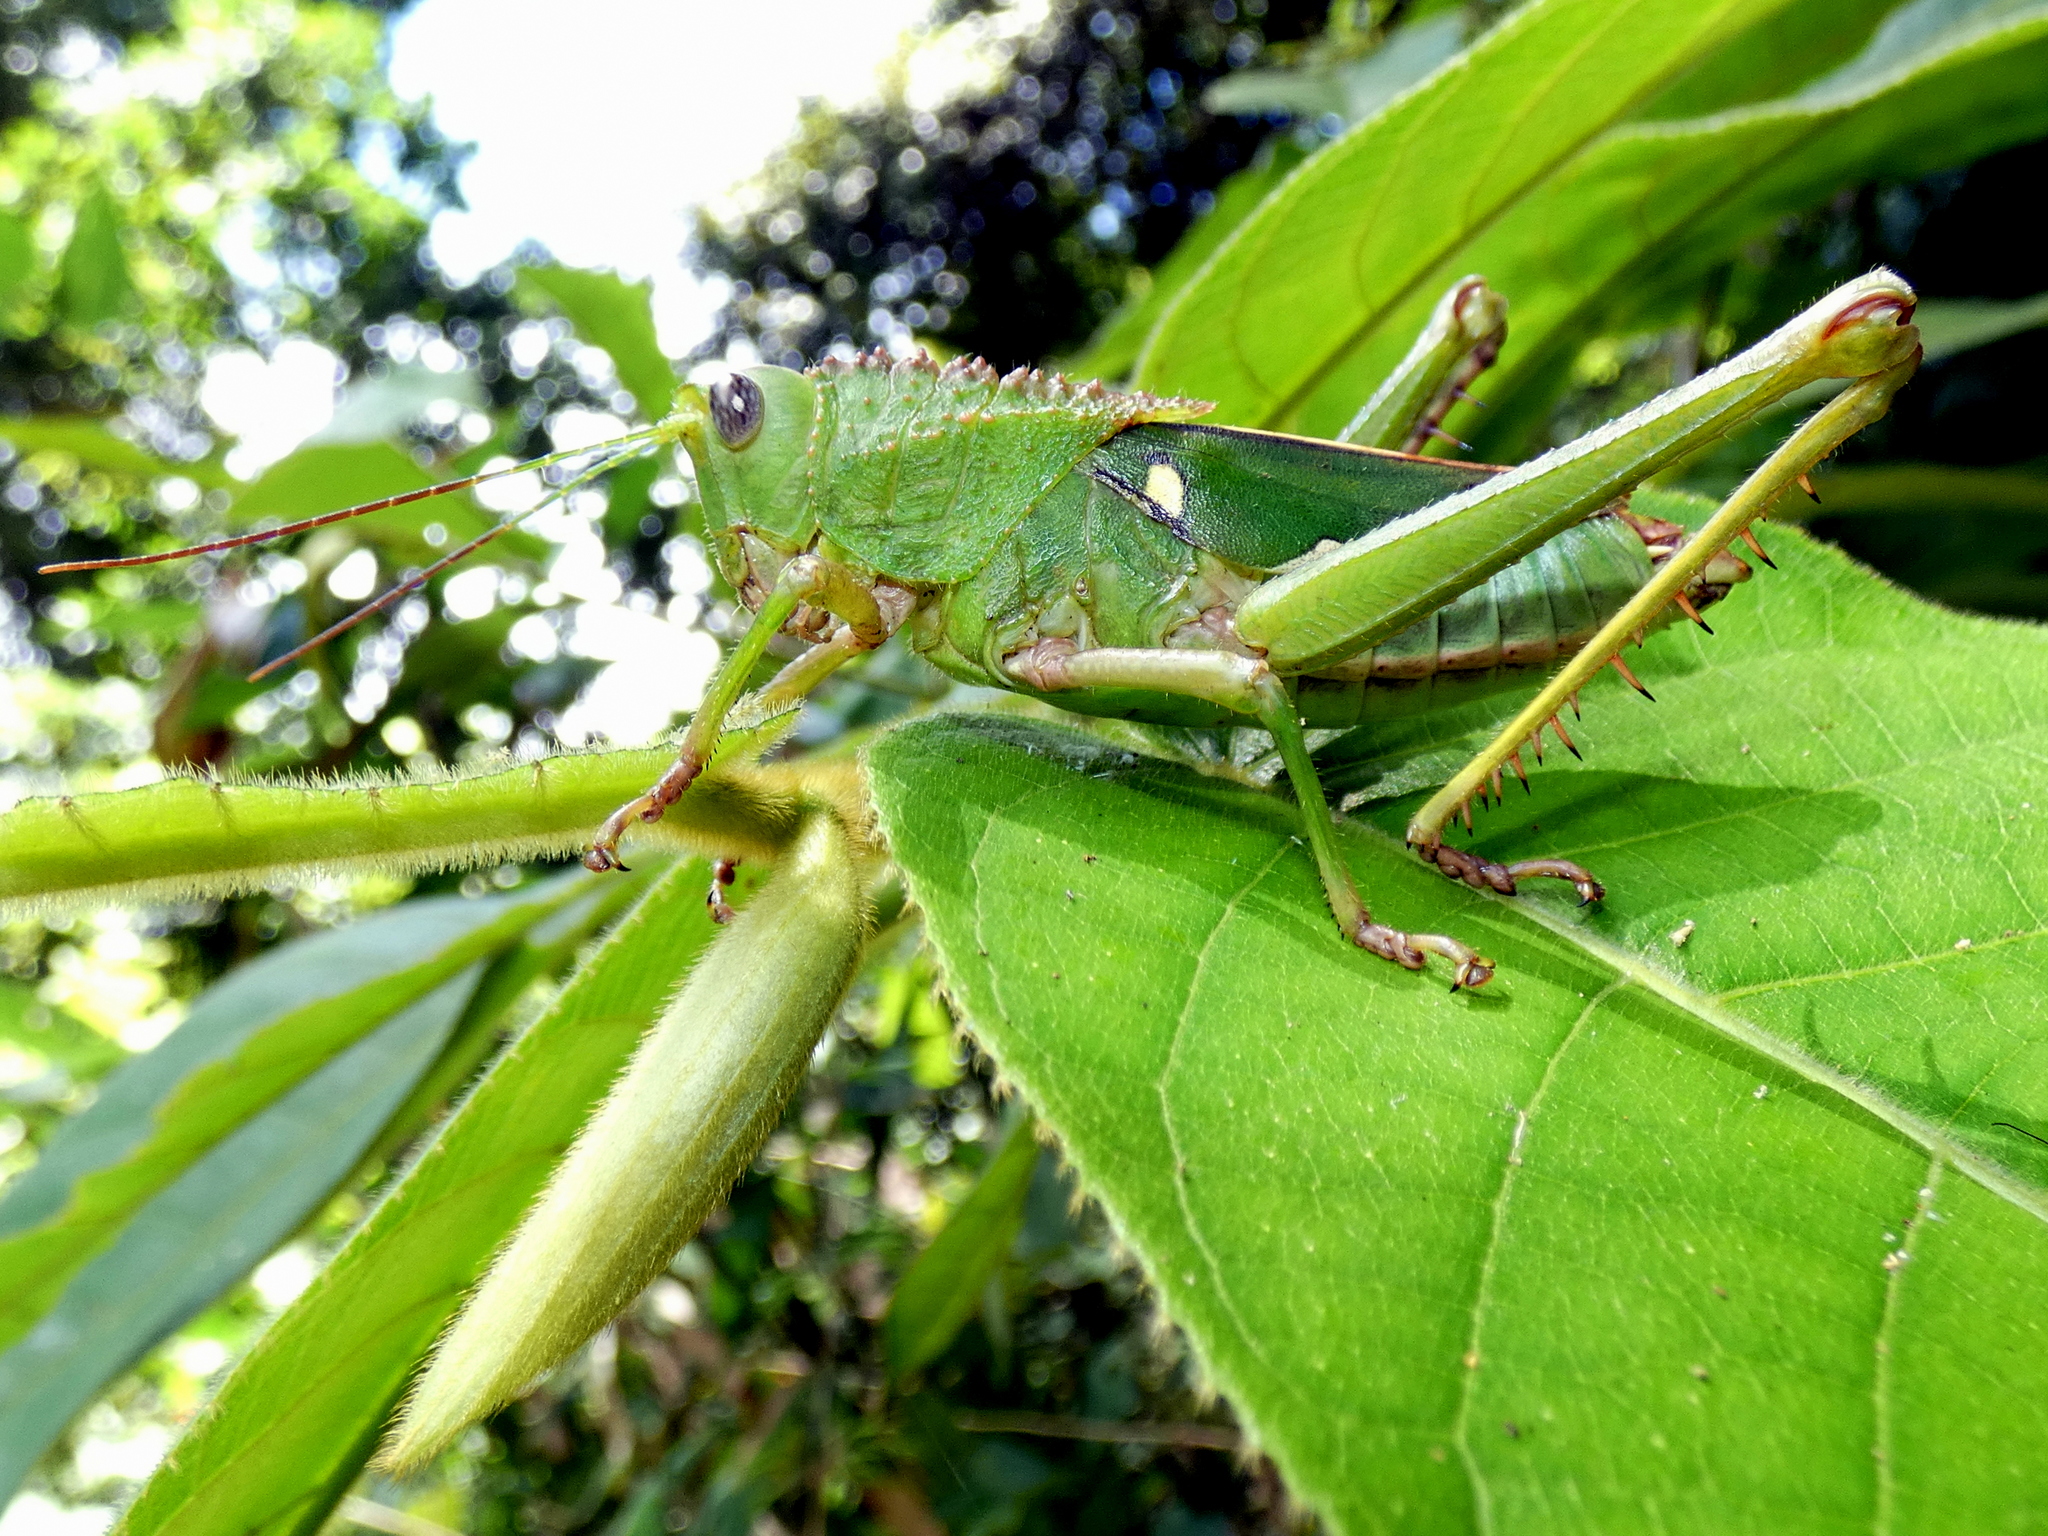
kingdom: Animalia
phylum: Arthropoda
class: Insecta
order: Orthoptera
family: Romaleidae
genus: Agriacris
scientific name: Agriacris tricristata
